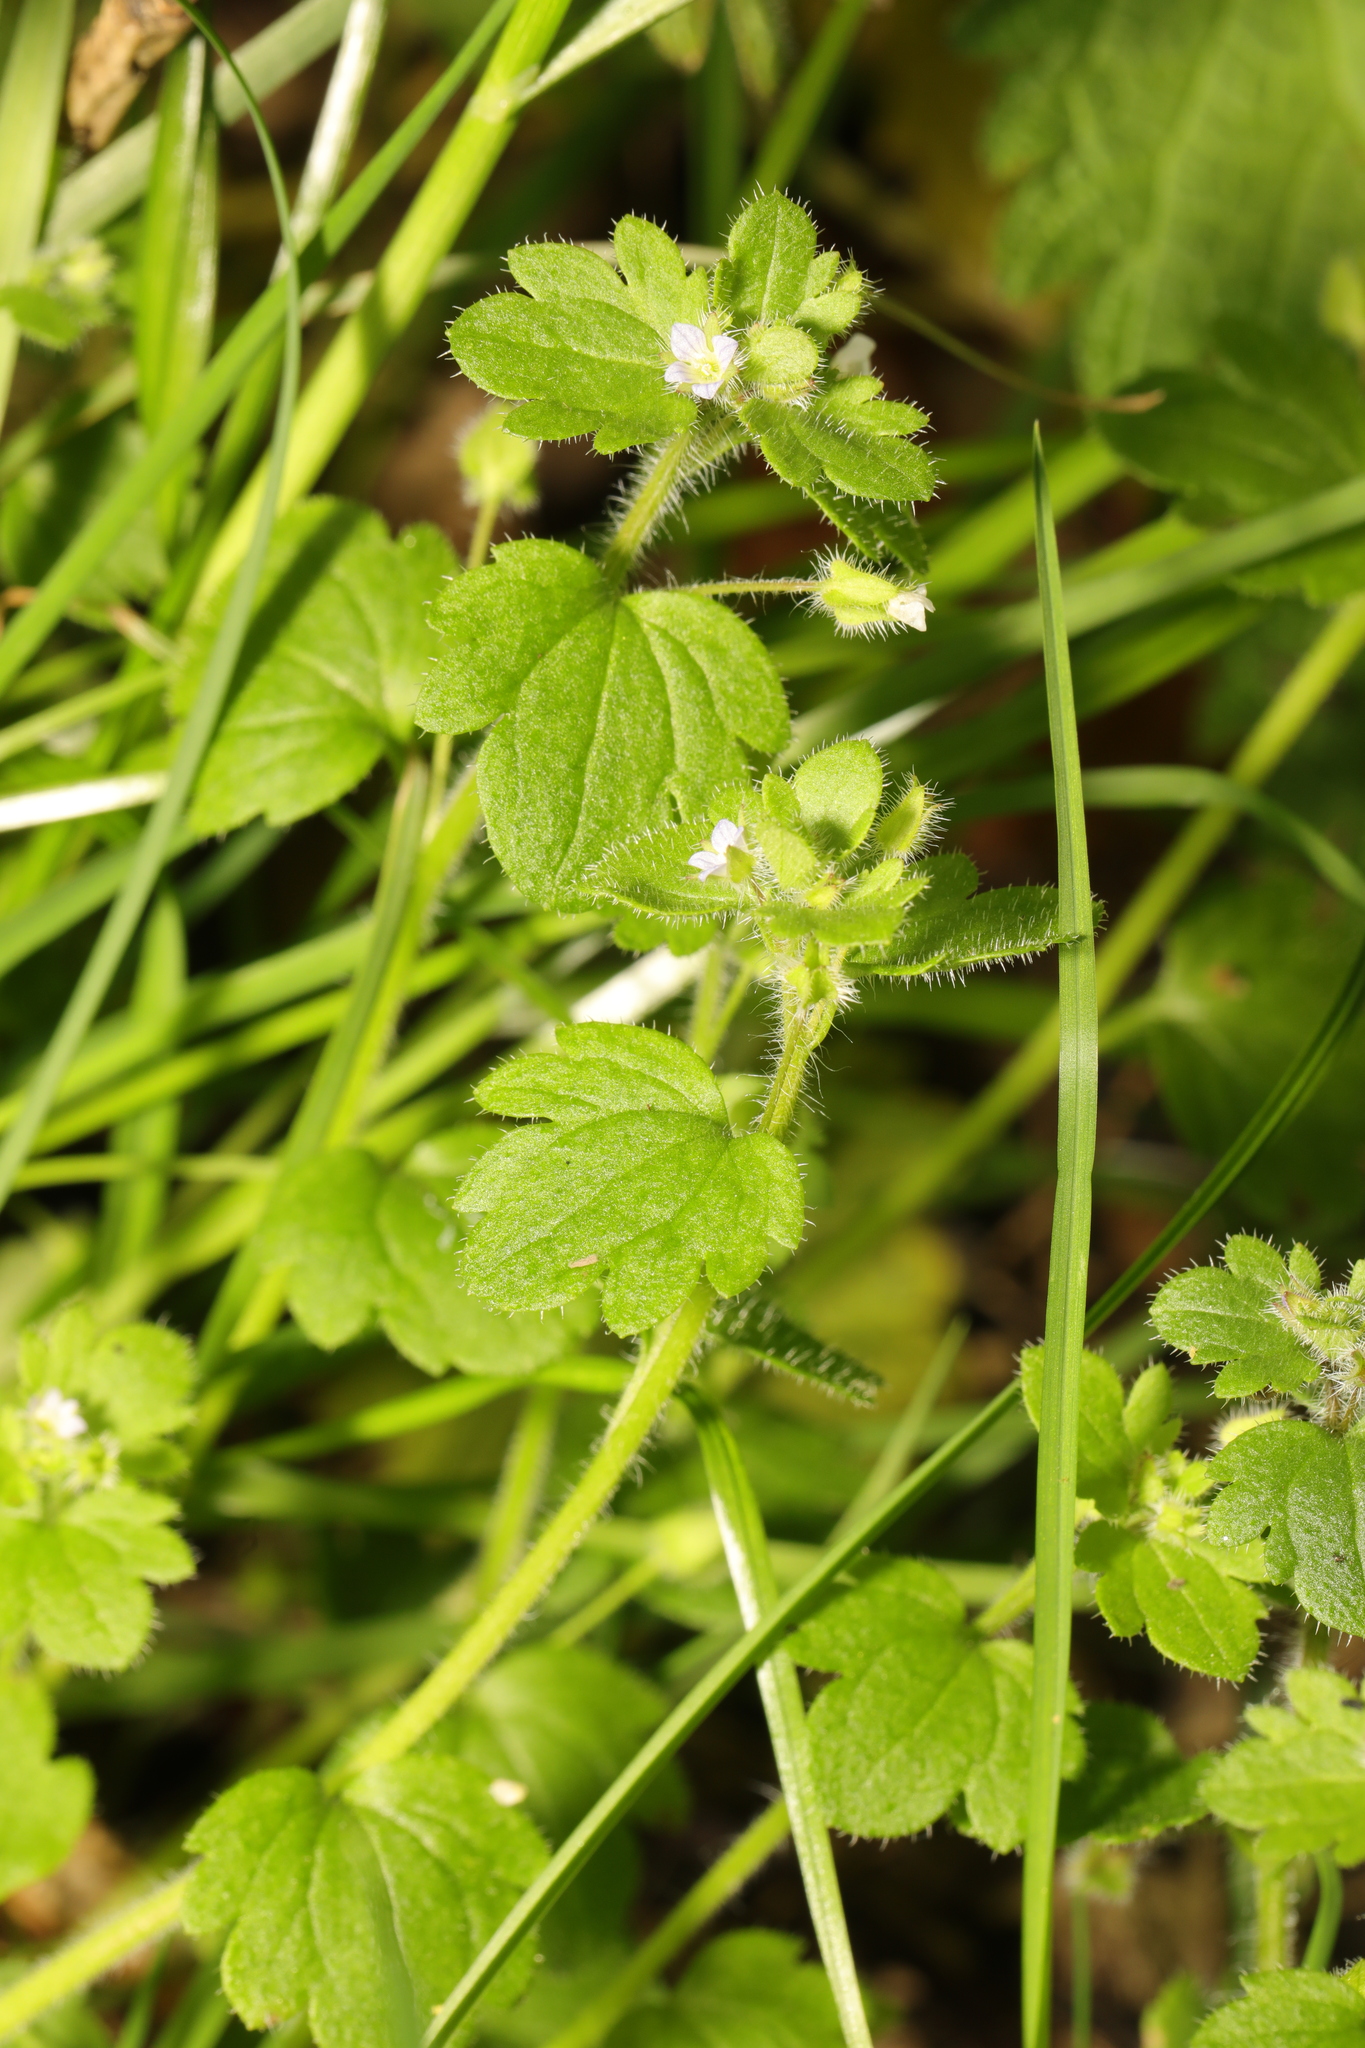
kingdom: Plantae
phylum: Tracheophyta
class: Magnoliopsida
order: Lamiales
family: Plantaginaceae
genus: Veronica
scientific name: Veronica sublobata
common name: False ivy-leaved speedwell
